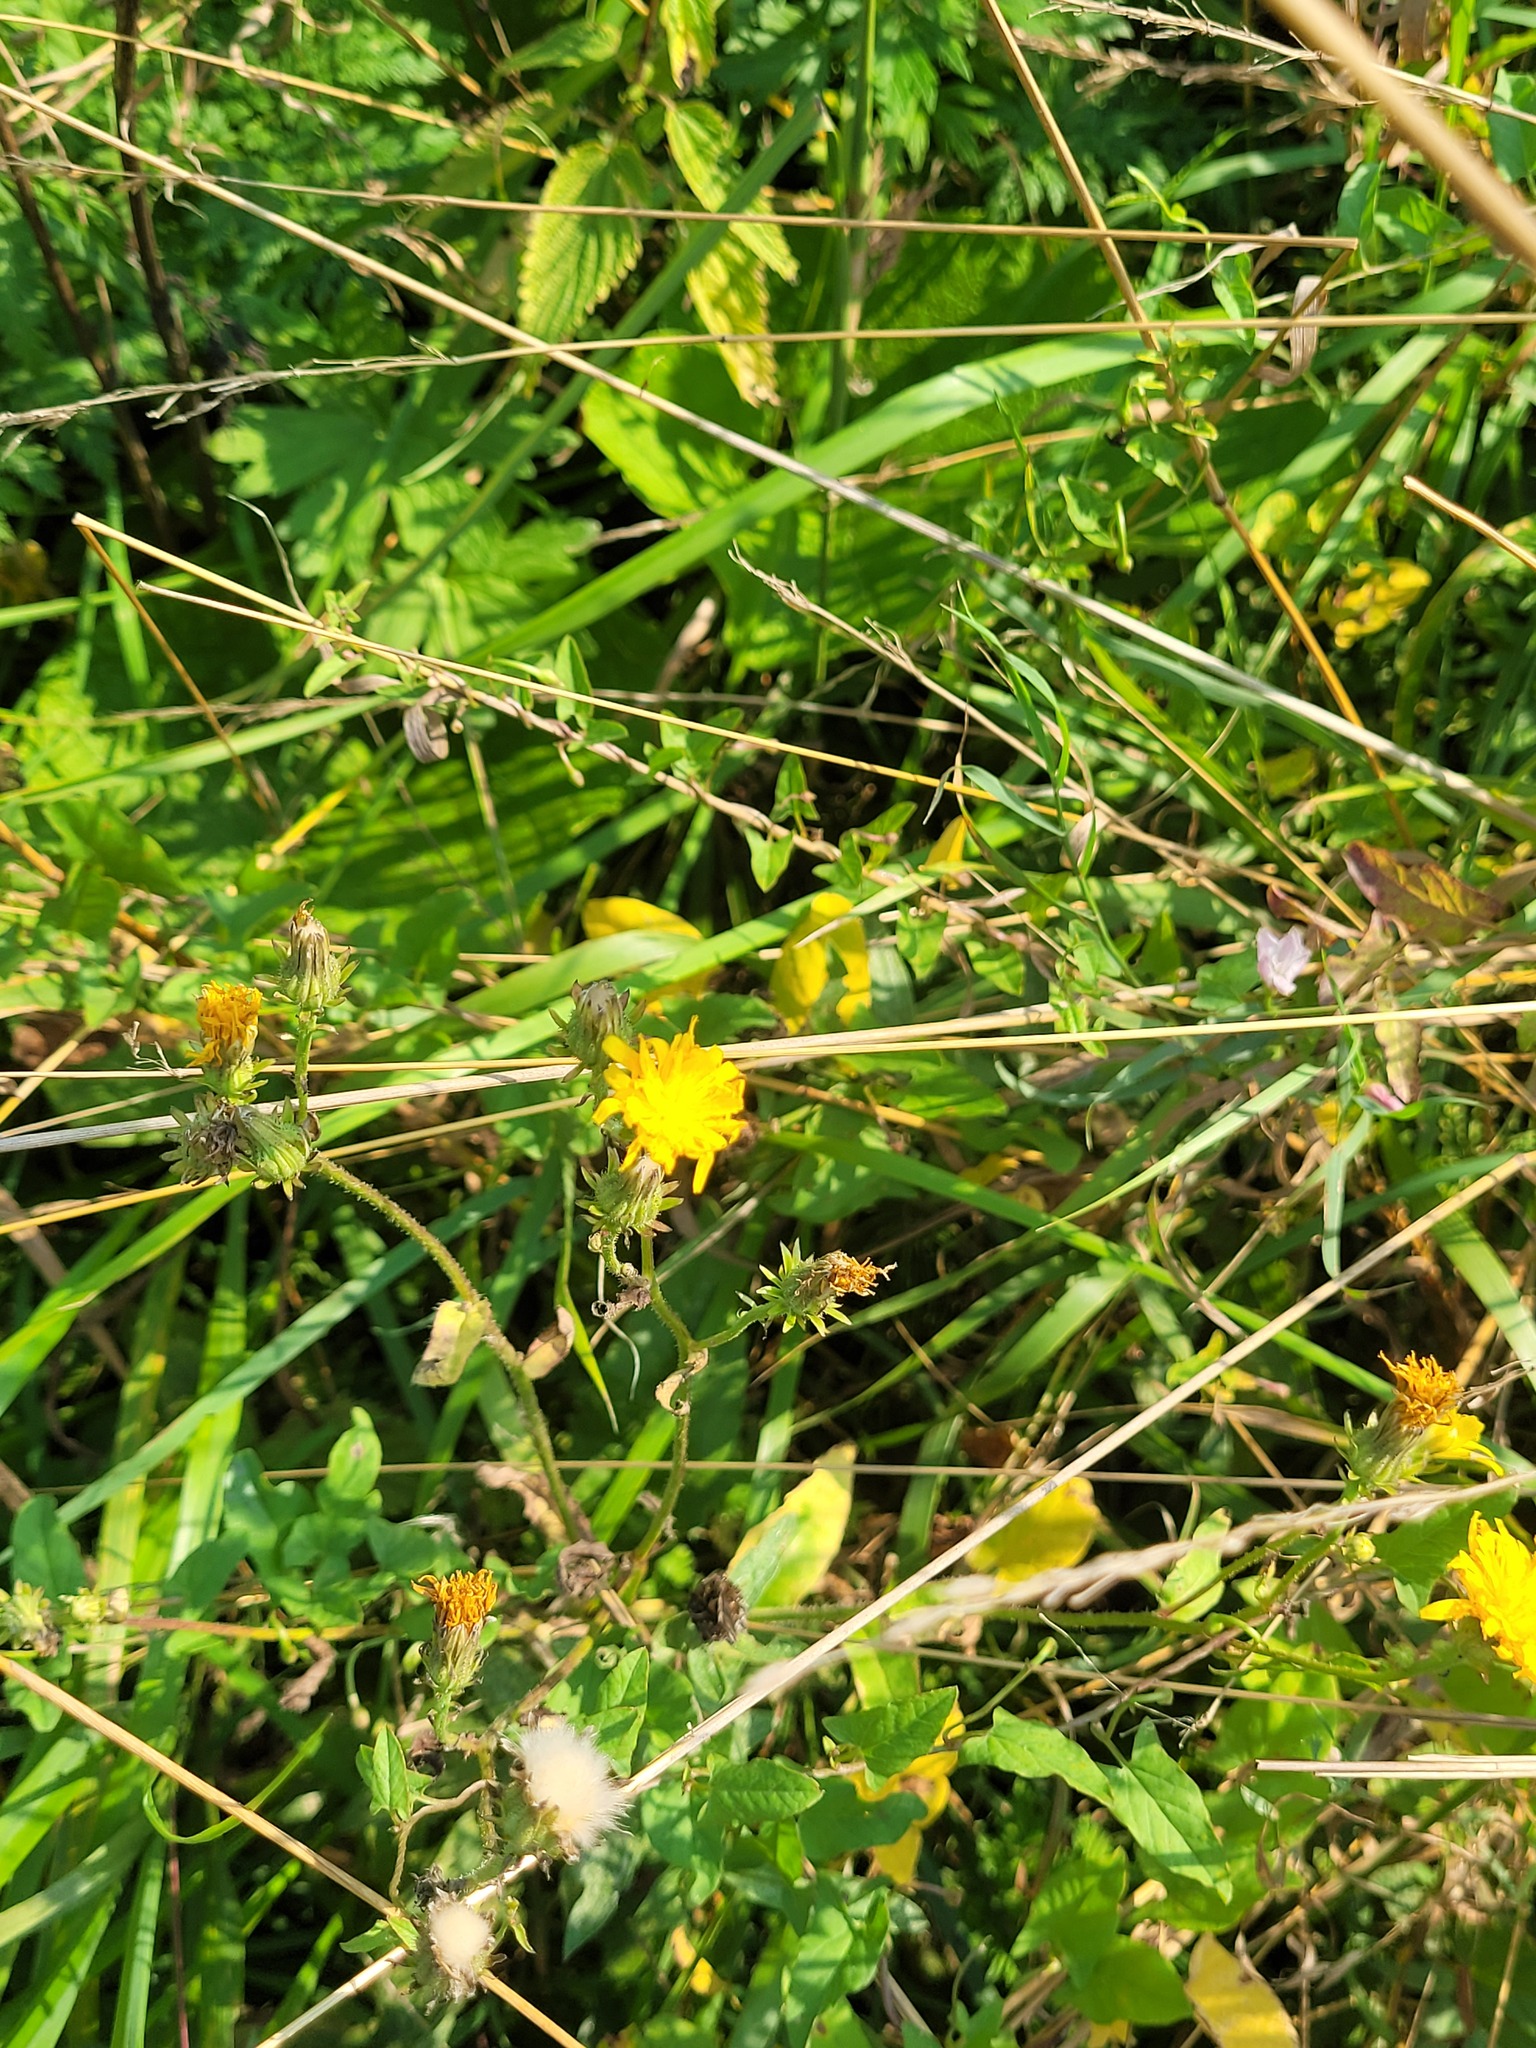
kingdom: Plantae
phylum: Tracheophyta
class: Magnoliopsida
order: Asterales
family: Asteraceae
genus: Picris
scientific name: Picris hieracioides
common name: Hawkweed oxtongue
